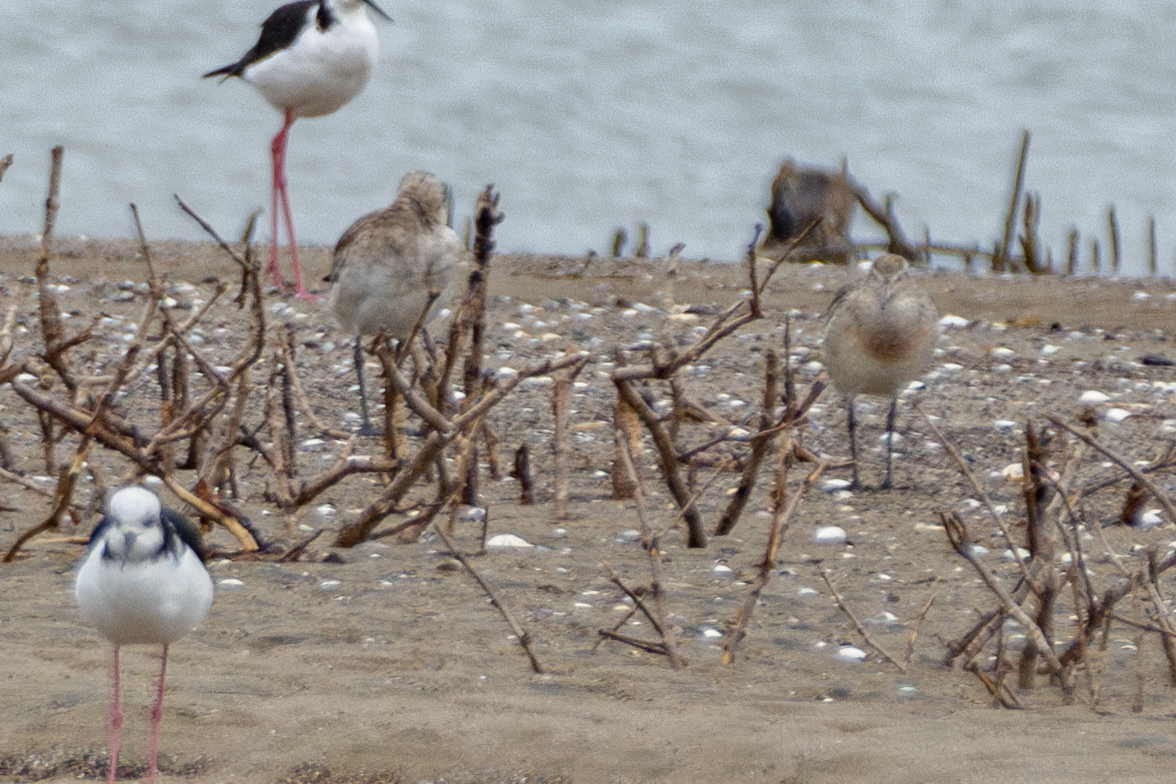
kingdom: Animalia
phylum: Chordata
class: Aves
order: Charadriiformes
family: Scolopacidae
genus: Limosa
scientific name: Limosa lapponica
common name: Bar-tailed godwit
